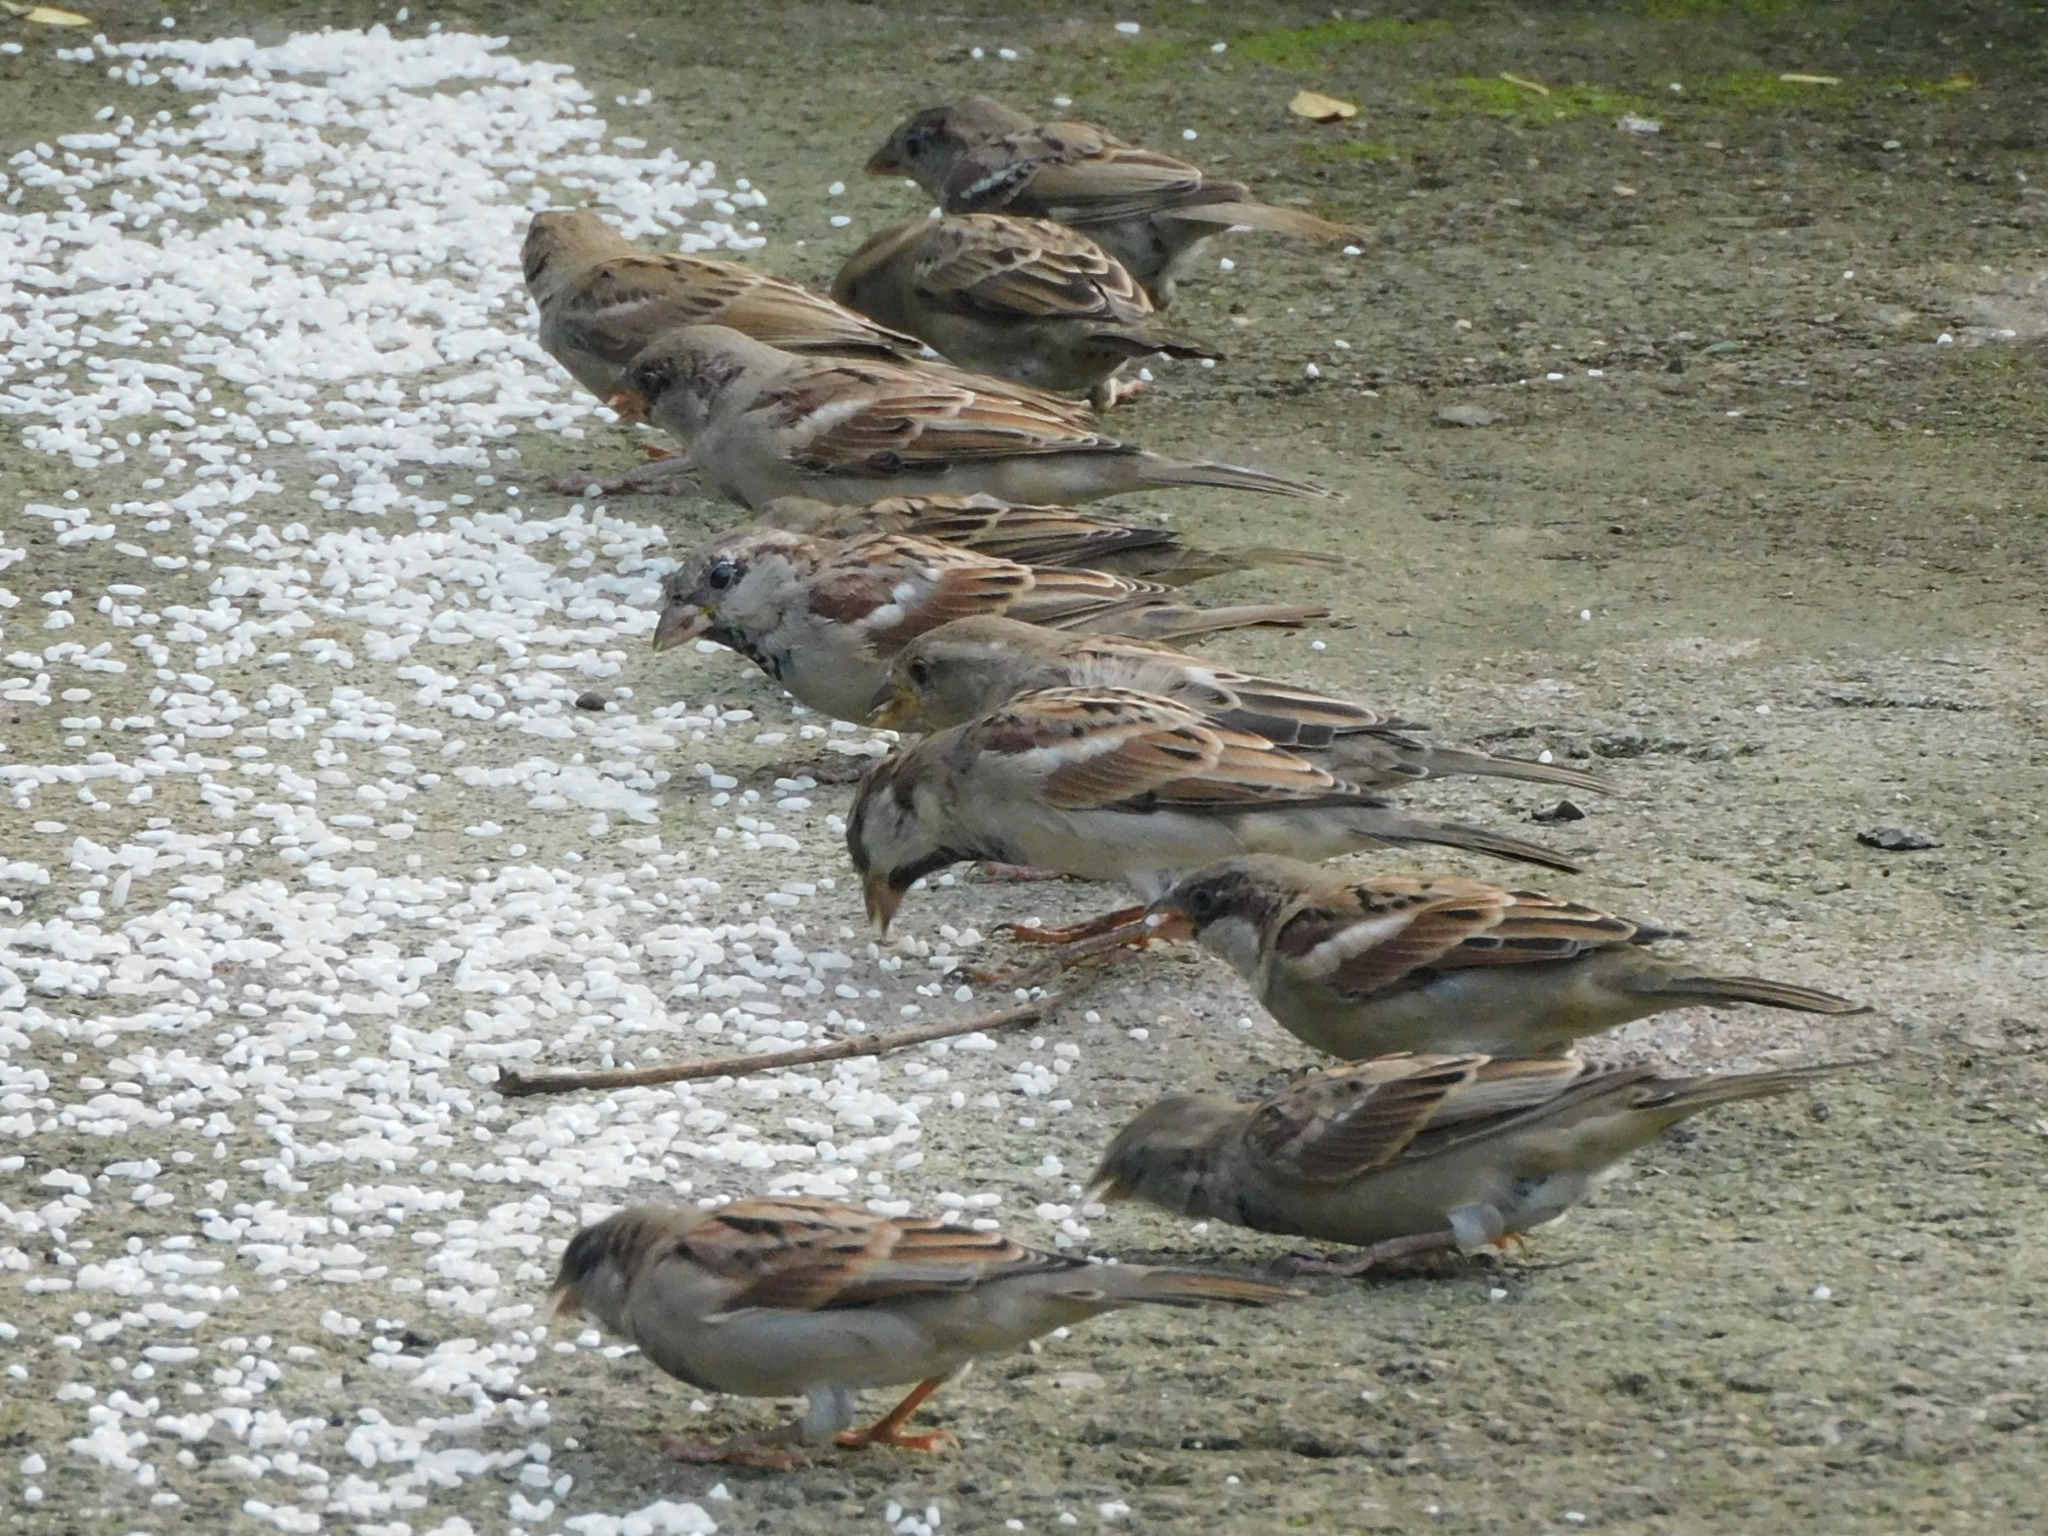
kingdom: Animalia
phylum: Chordata
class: Aves
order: Passeriformes
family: Passeridae
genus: Passer
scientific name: Passer domesticus
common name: House sparrow
